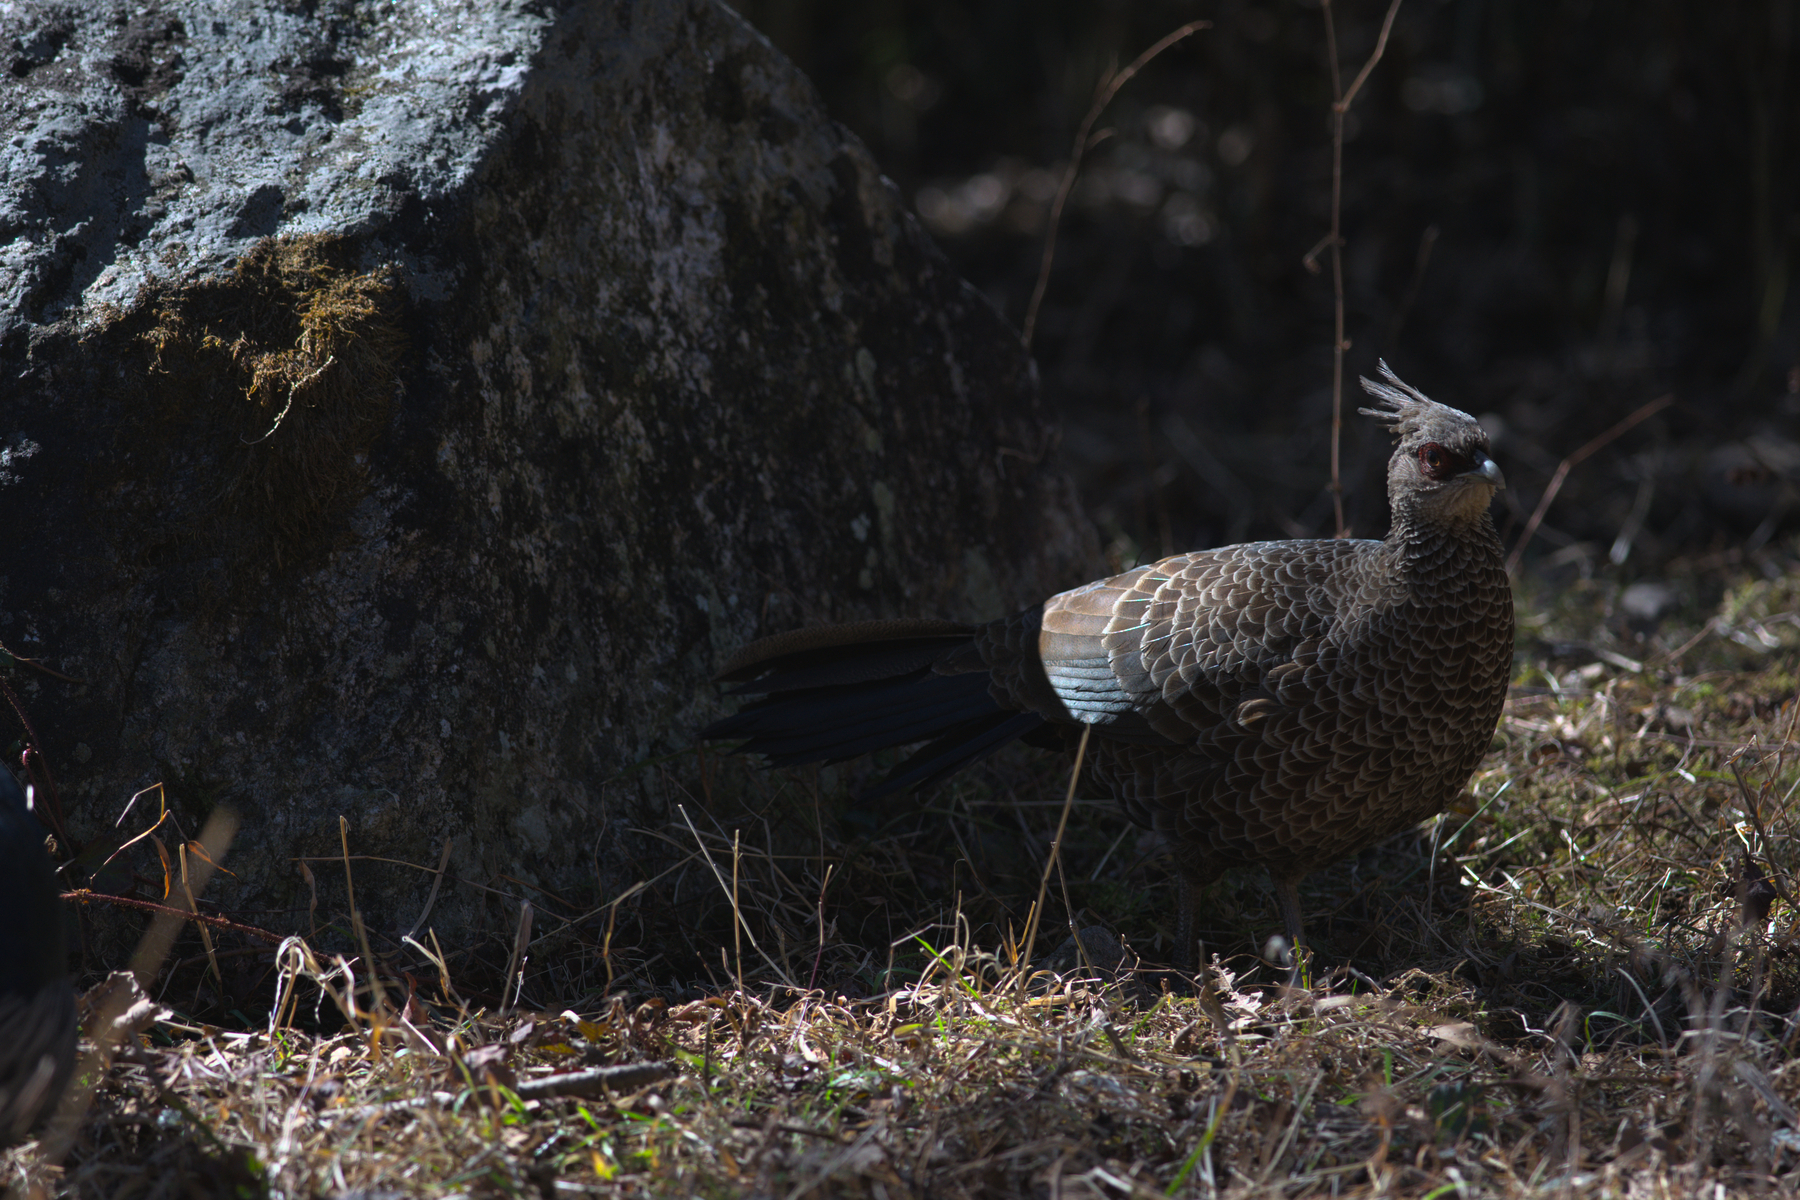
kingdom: Animalia
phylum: Chordata
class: Aves
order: Galliformes
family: Phasianidae
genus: Lophura
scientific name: Lophura leucomelanos
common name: Kalij pheasant
